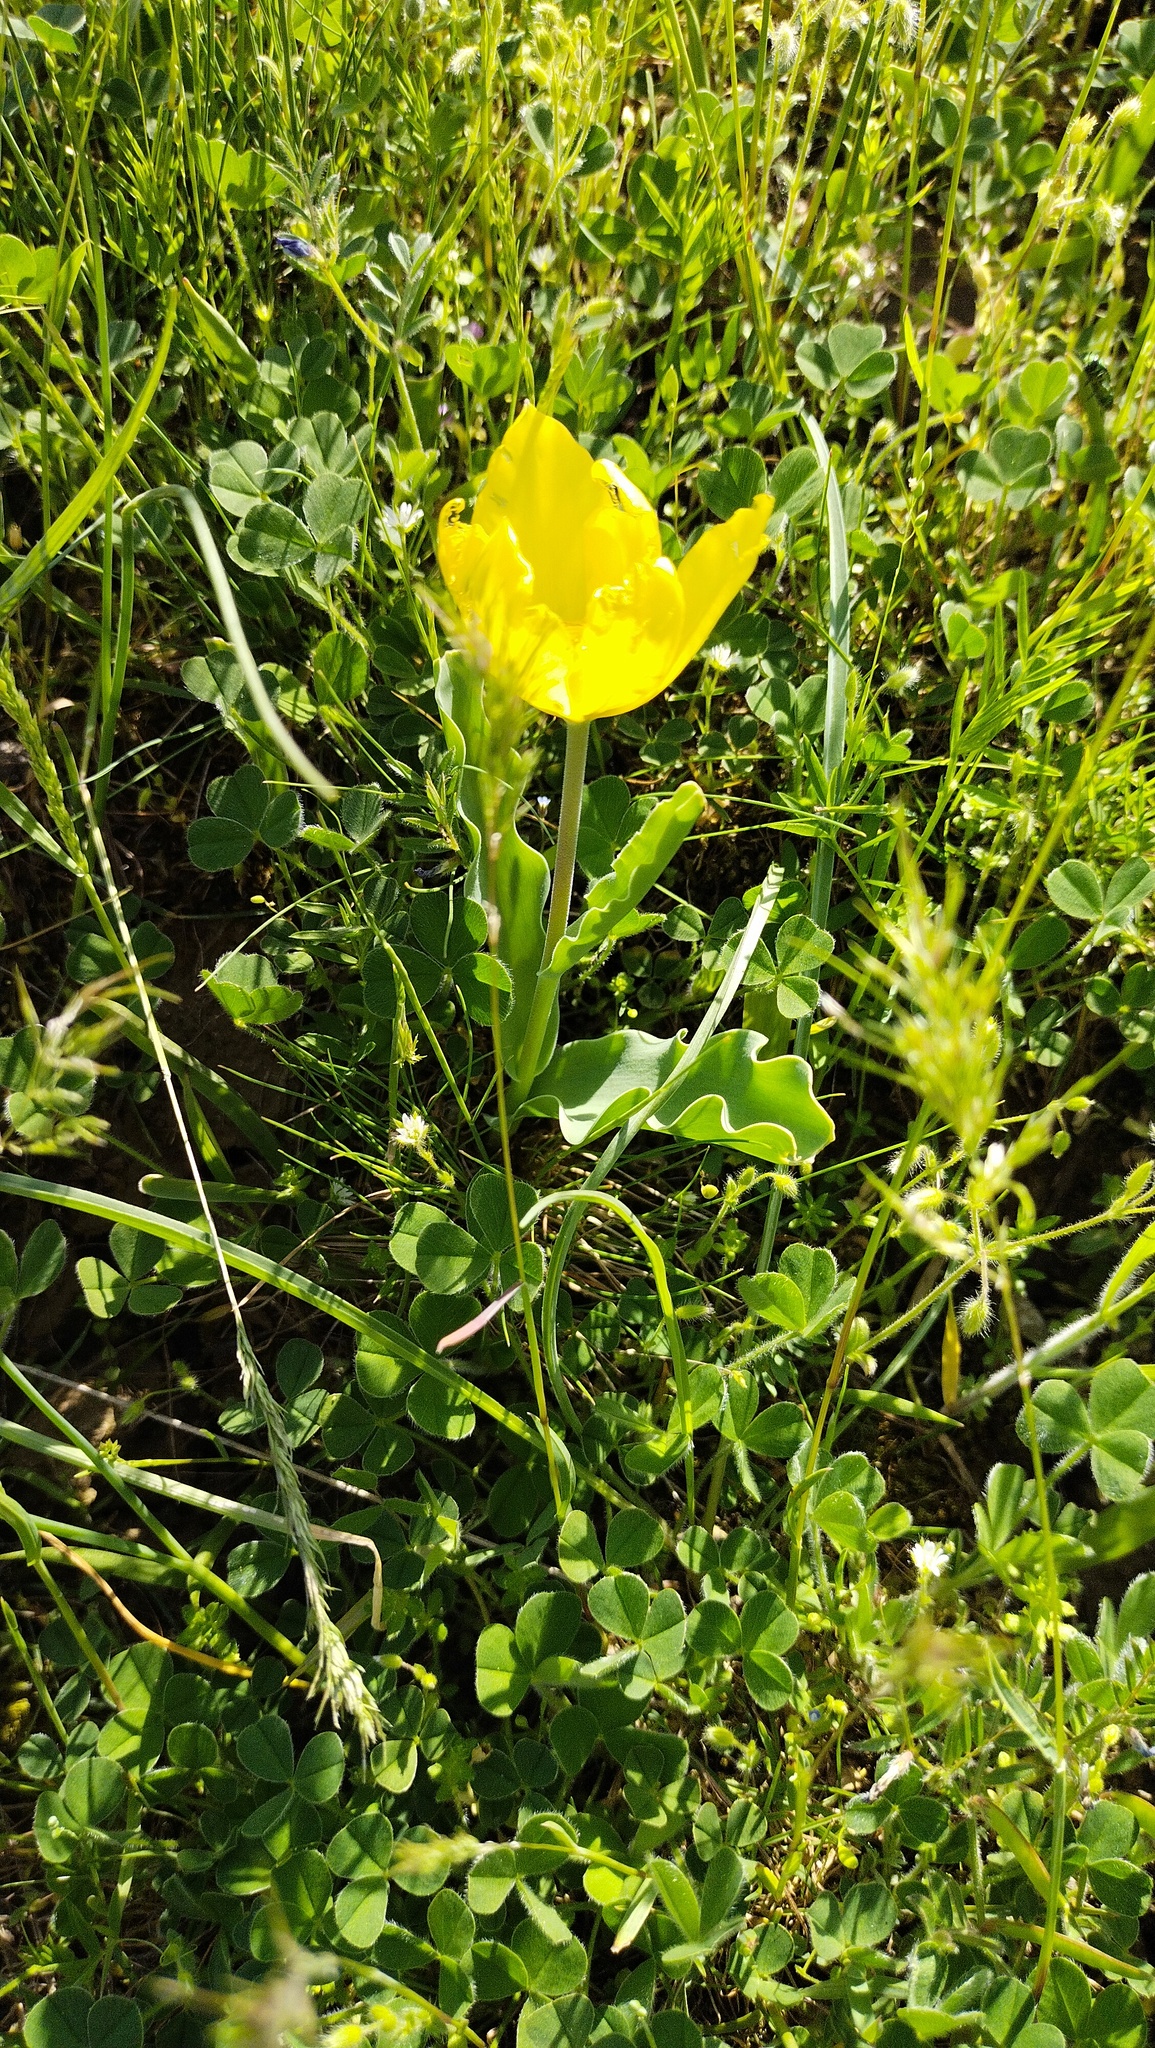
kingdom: Plantae
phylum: Tracheophyta
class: Liliopsida
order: Liliales
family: Liliaceae
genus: Tulipa
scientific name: Tulipa suaveolens
